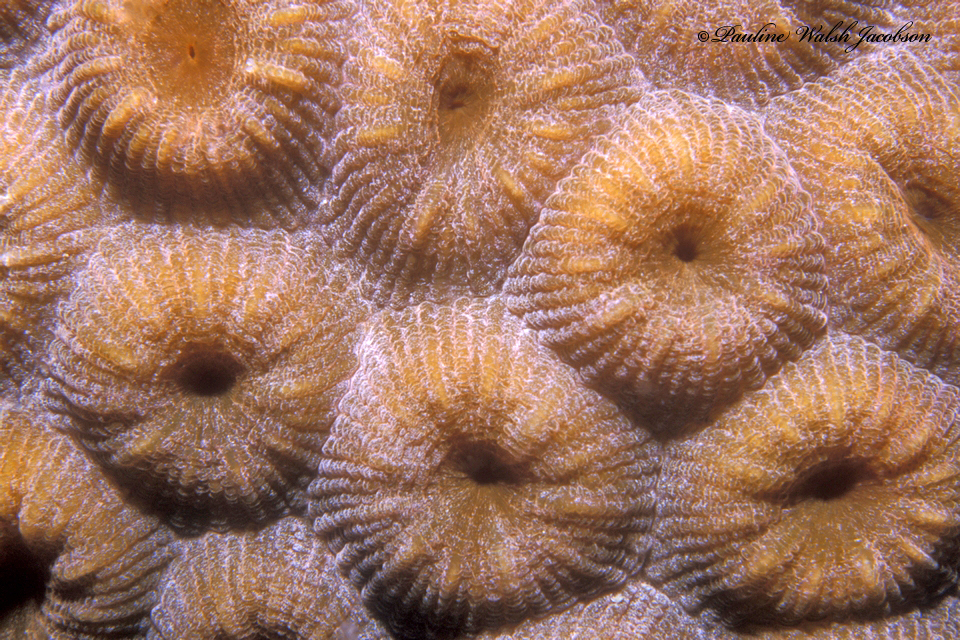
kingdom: Animalia
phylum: Cnidaria
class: Anthozoa
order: Scleractinia
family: Montastraeidae
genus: Montastraea
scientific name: Montastraea cavernosa
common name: Great star coral
